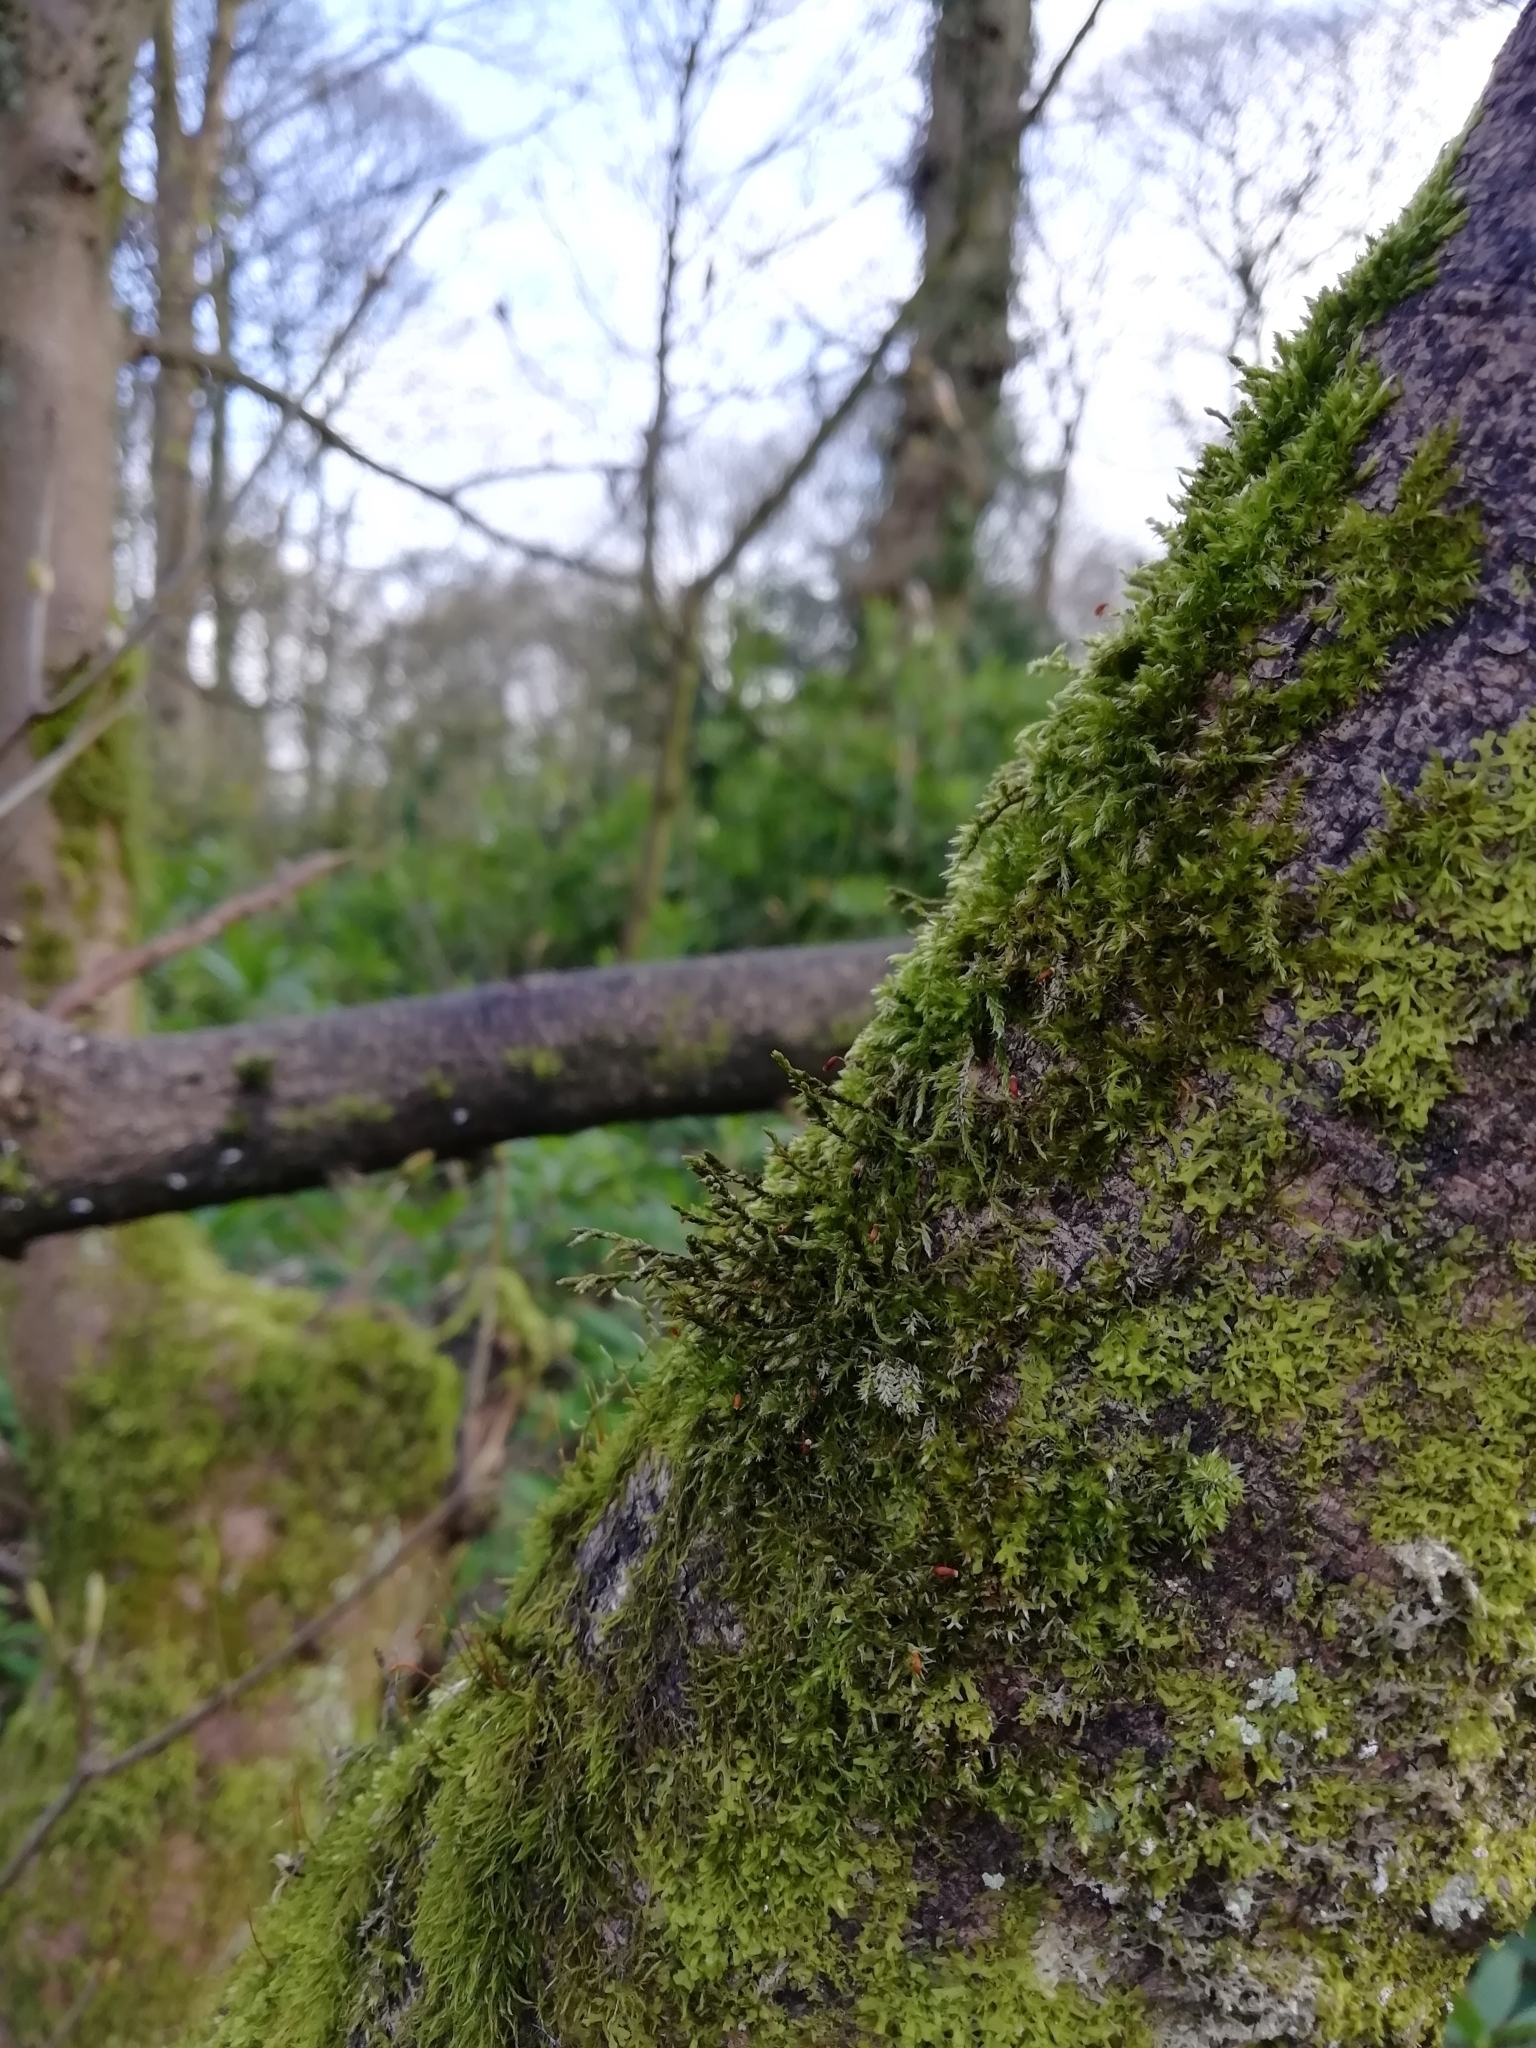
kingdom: Plantae
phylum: Bryophyta
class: Bryopsida
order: Hypnales
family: Cryphaeaceae
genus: Cryphaea
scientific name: Cryphaea heteromalla
